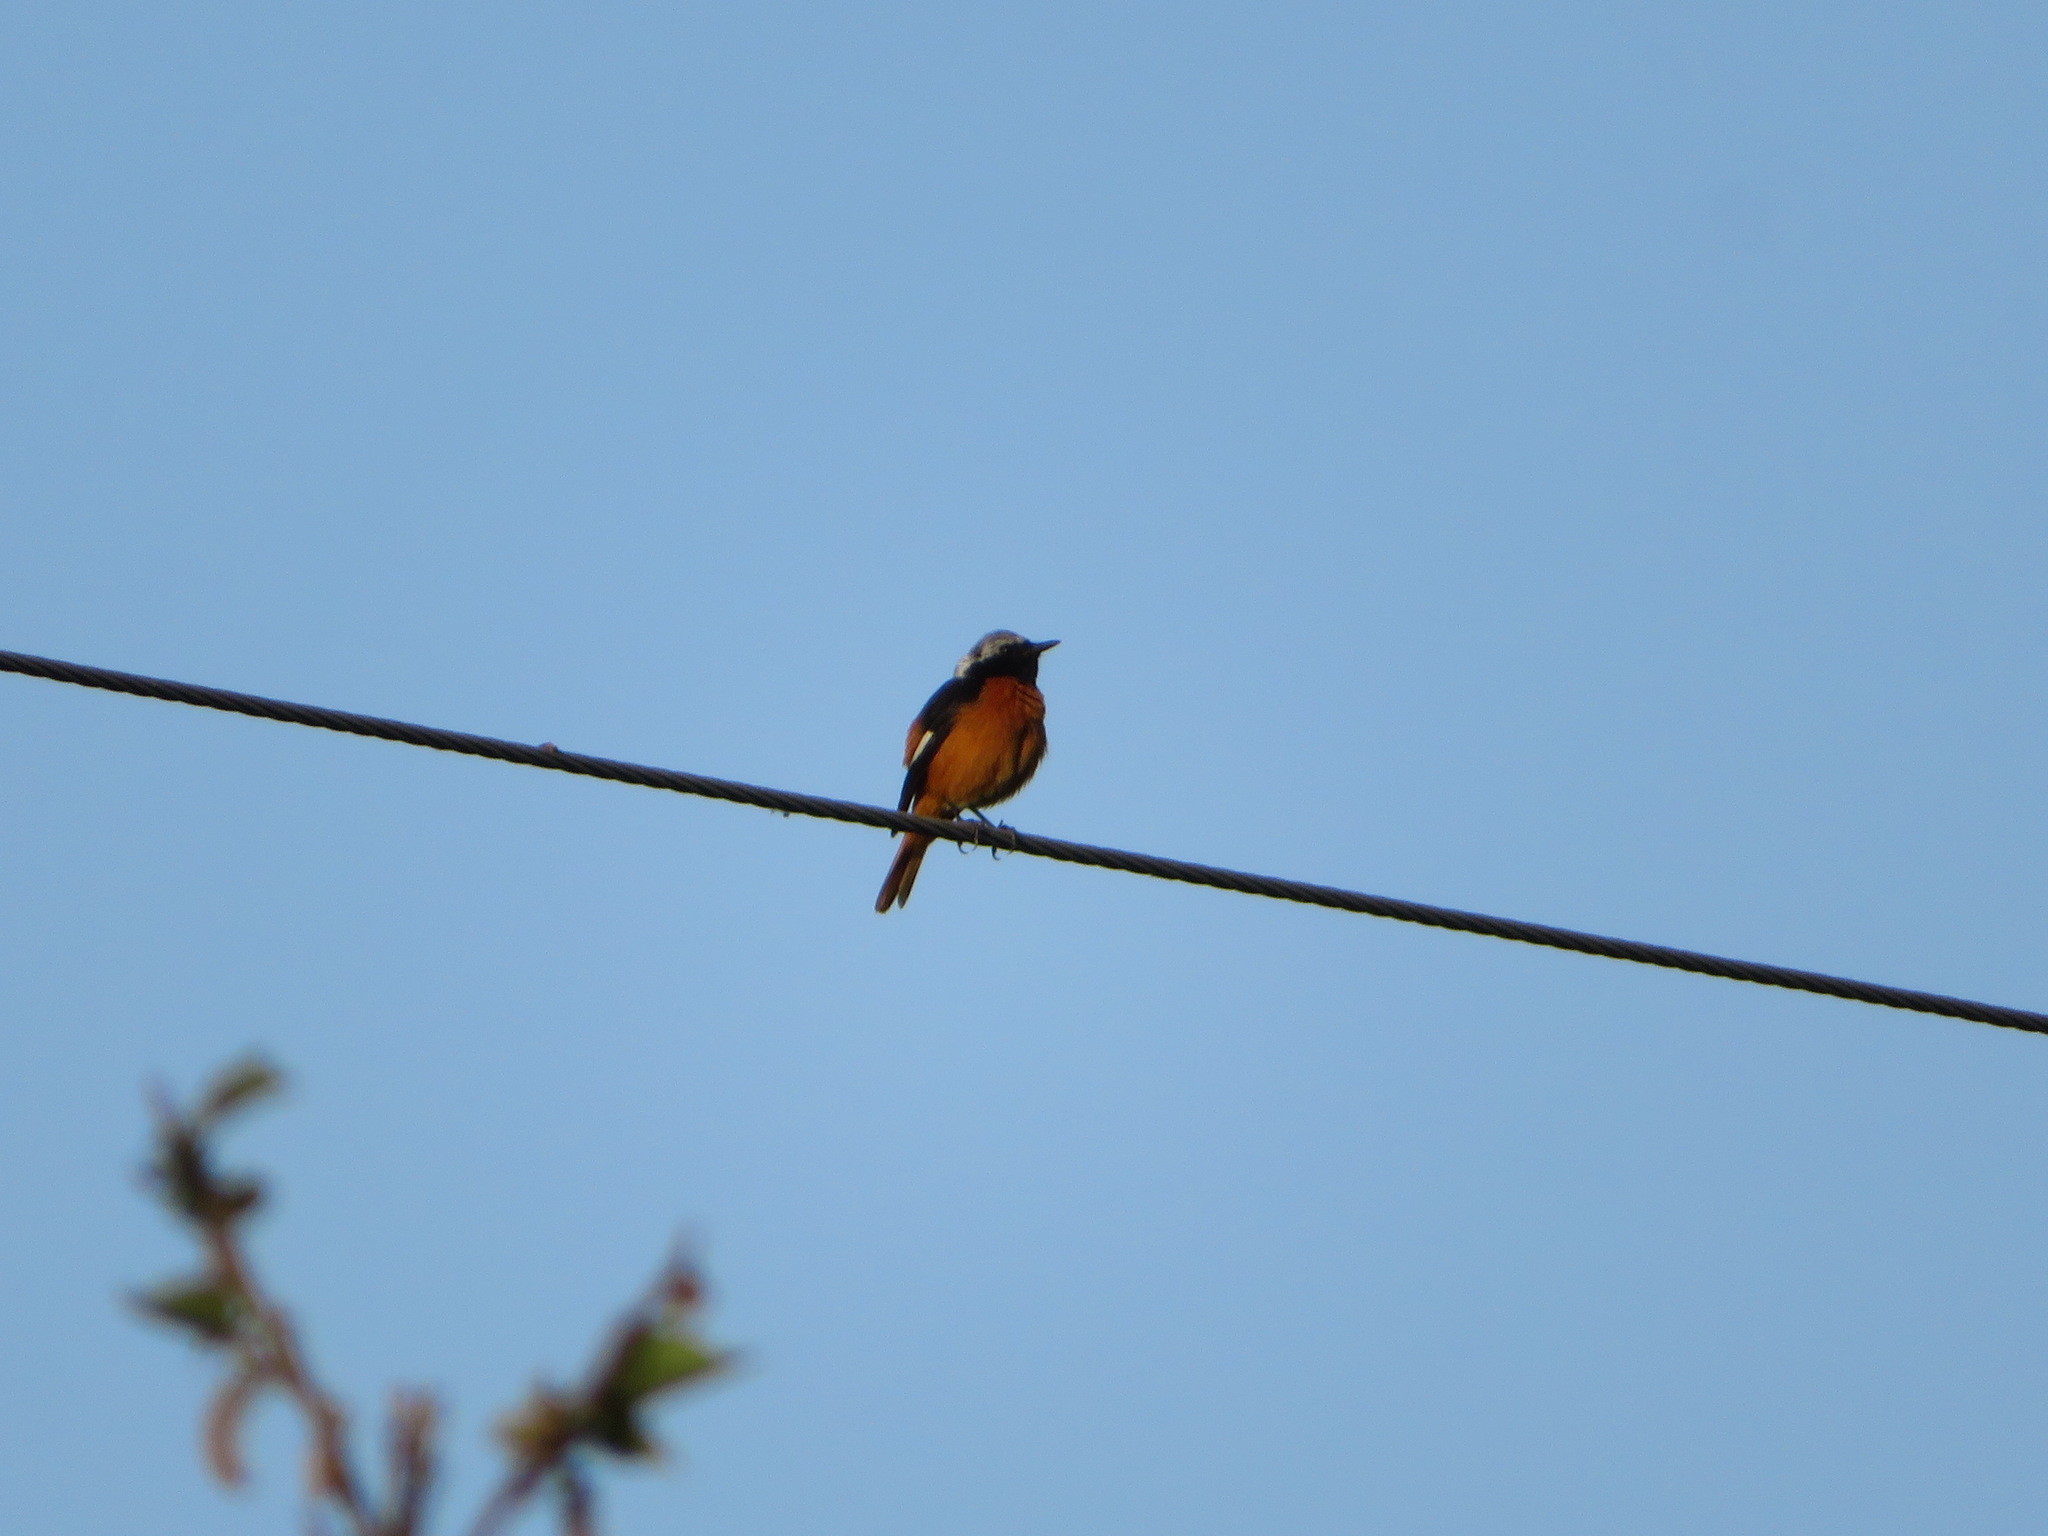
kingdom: Animalia
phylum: Chordata
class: Aves
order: Passeriformes
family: Muscicapidae
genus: Phoenicurus
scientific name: Phoenicurus auroreus
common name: Daurian redstart
